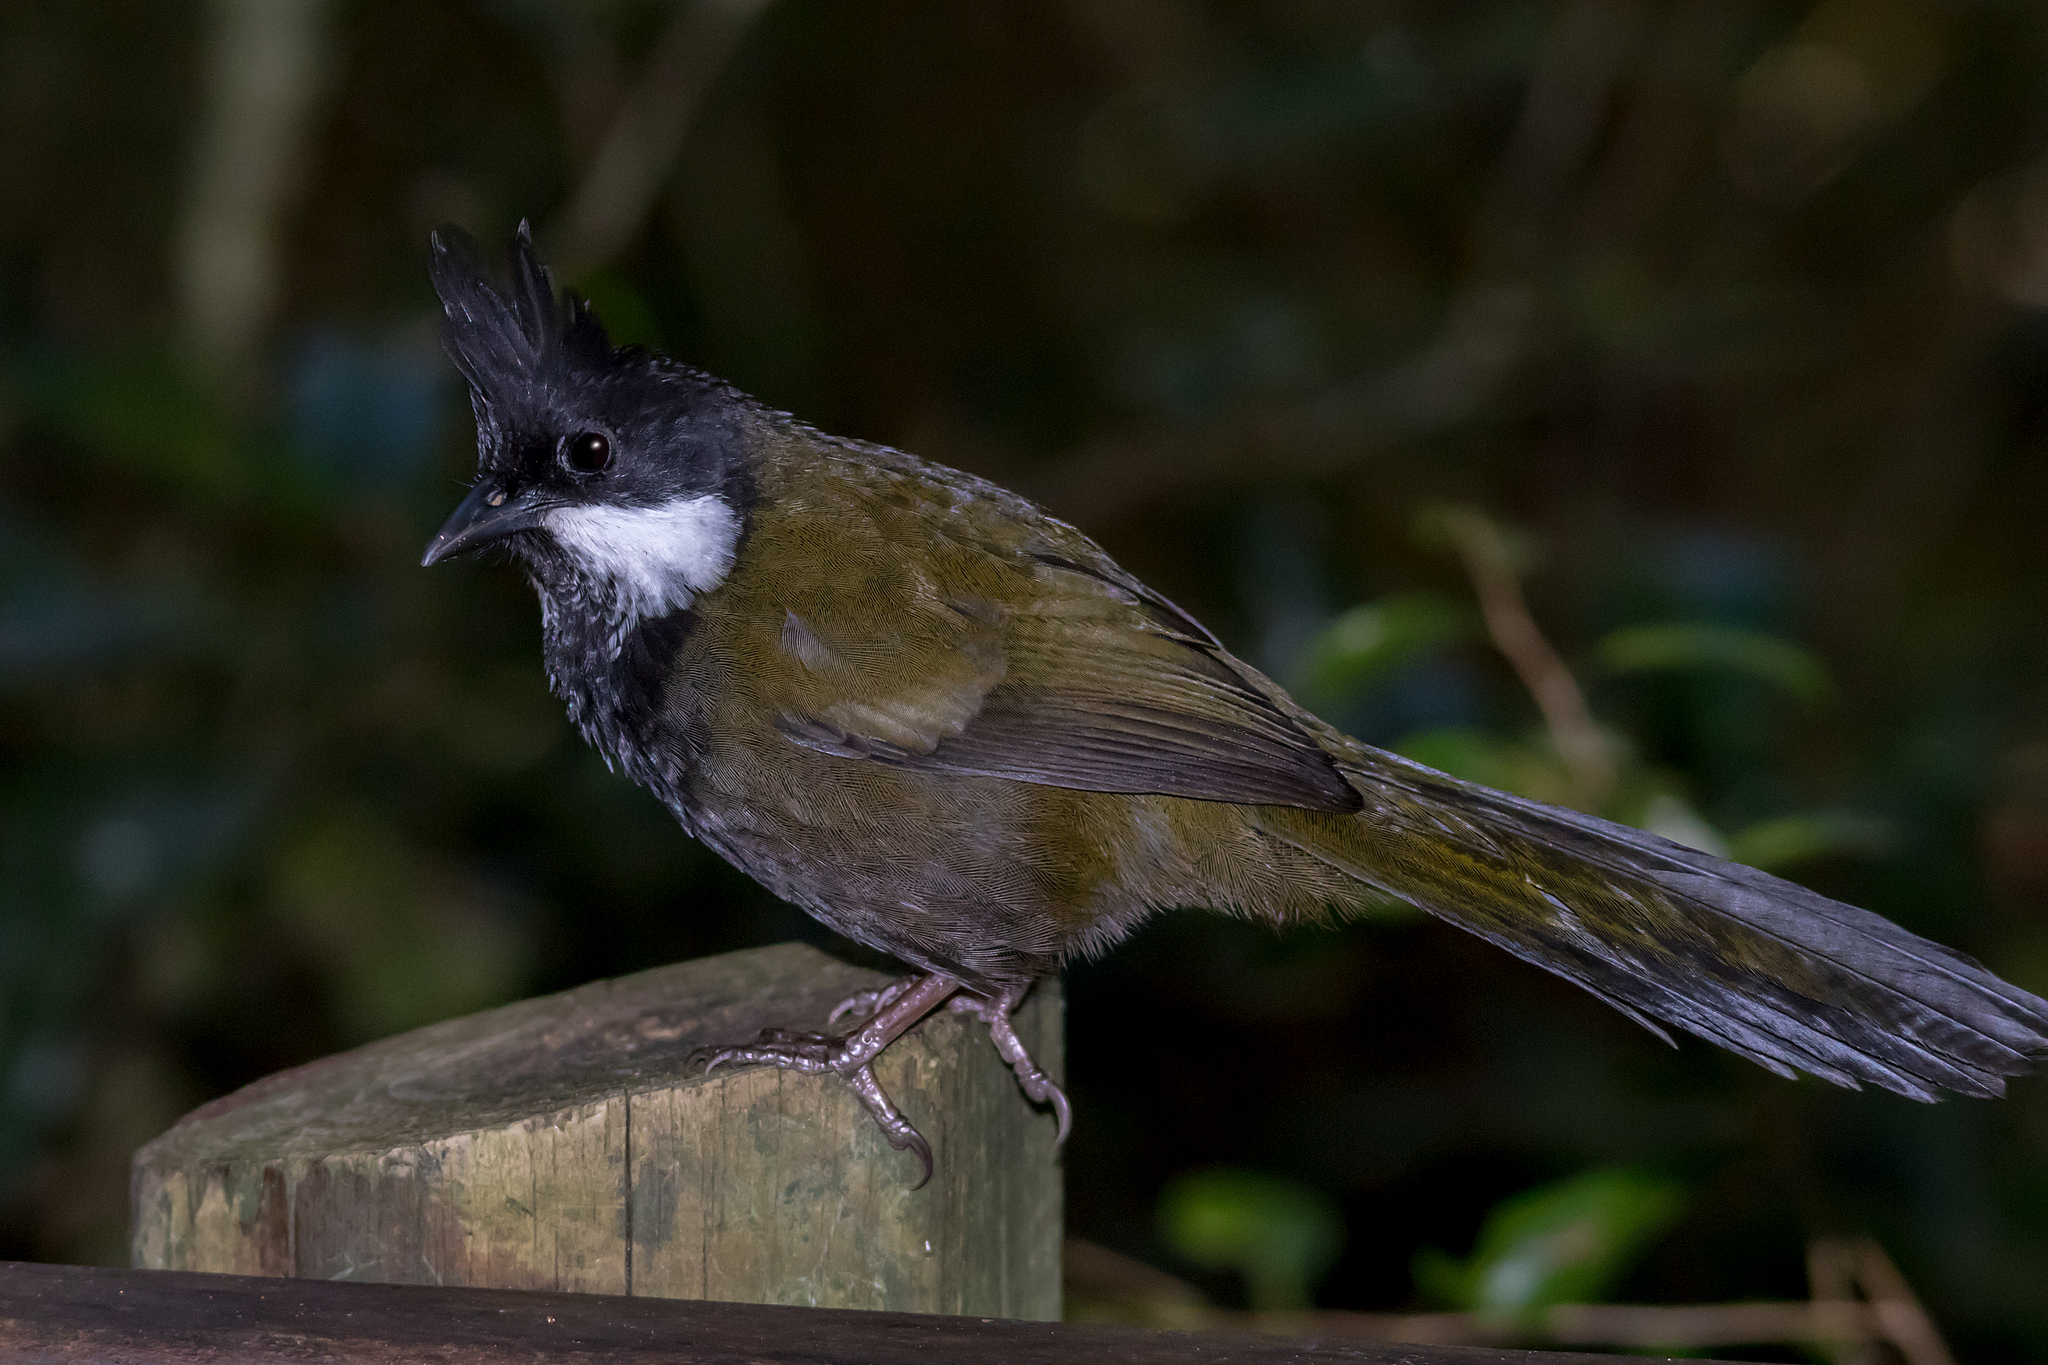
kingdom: Animalia
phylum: Chordata
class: Aves
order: Passeriformes
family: Psophodidae
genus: Psophodes
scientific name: Psophodes olivaceus
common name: Eastern whipbird
